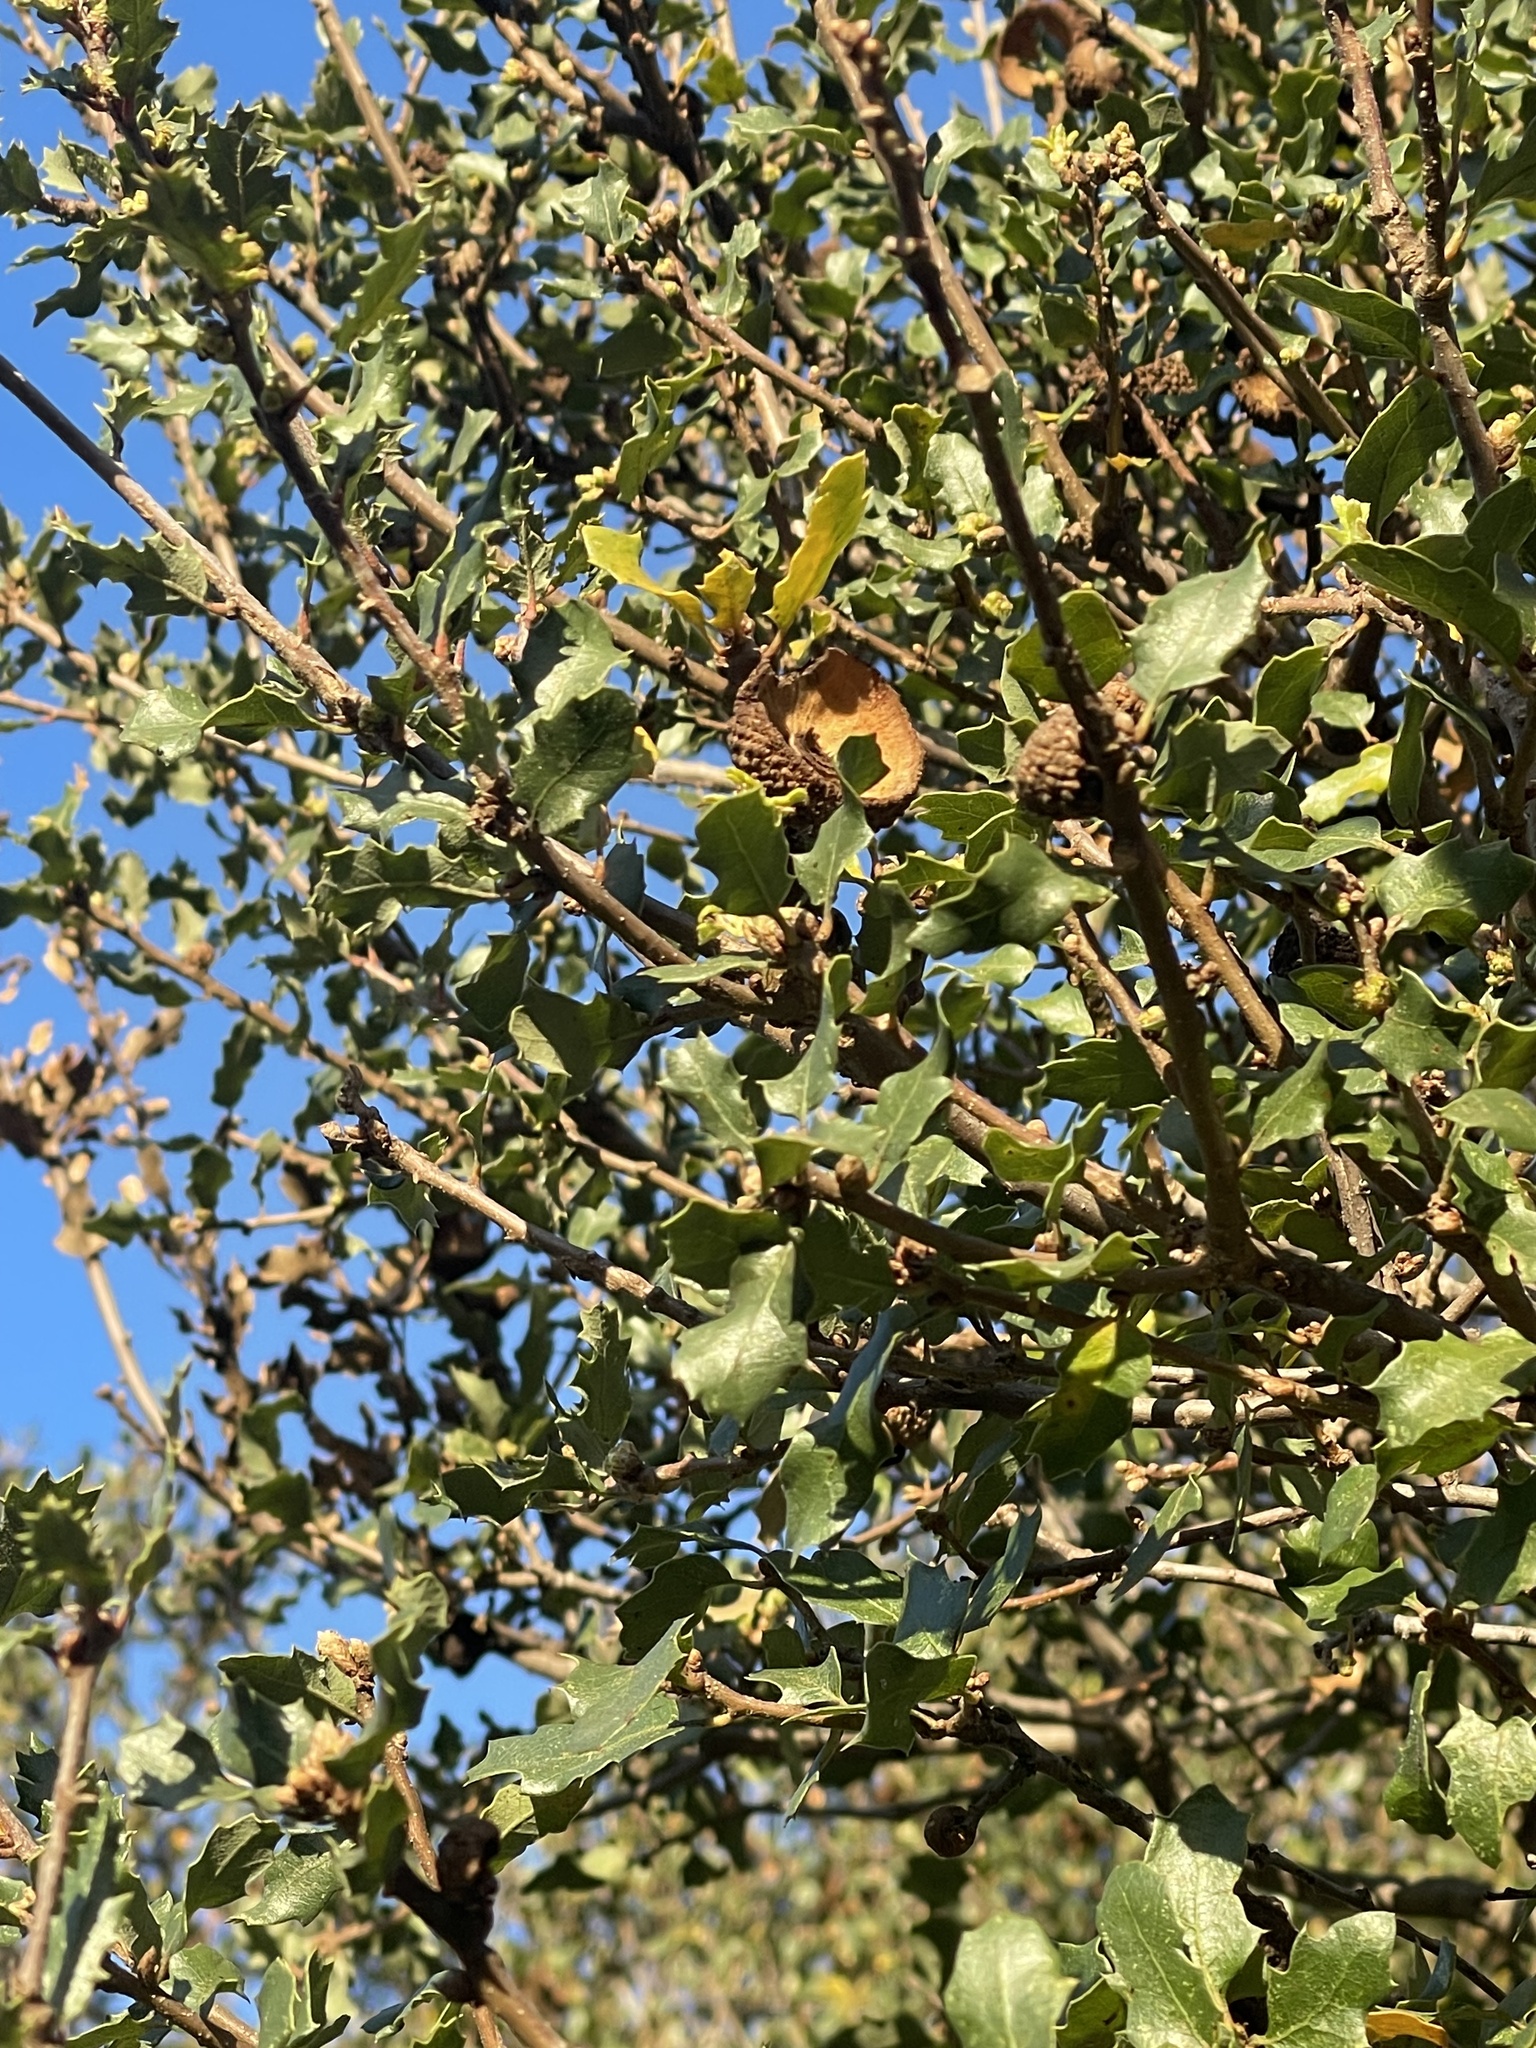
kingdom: Plantae
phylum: Tracheophyta
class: Magnoliopsida
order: Fagales
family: Fagaceae
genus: Quercus
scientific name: Quercus berberidifolia
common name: California scrub oak
